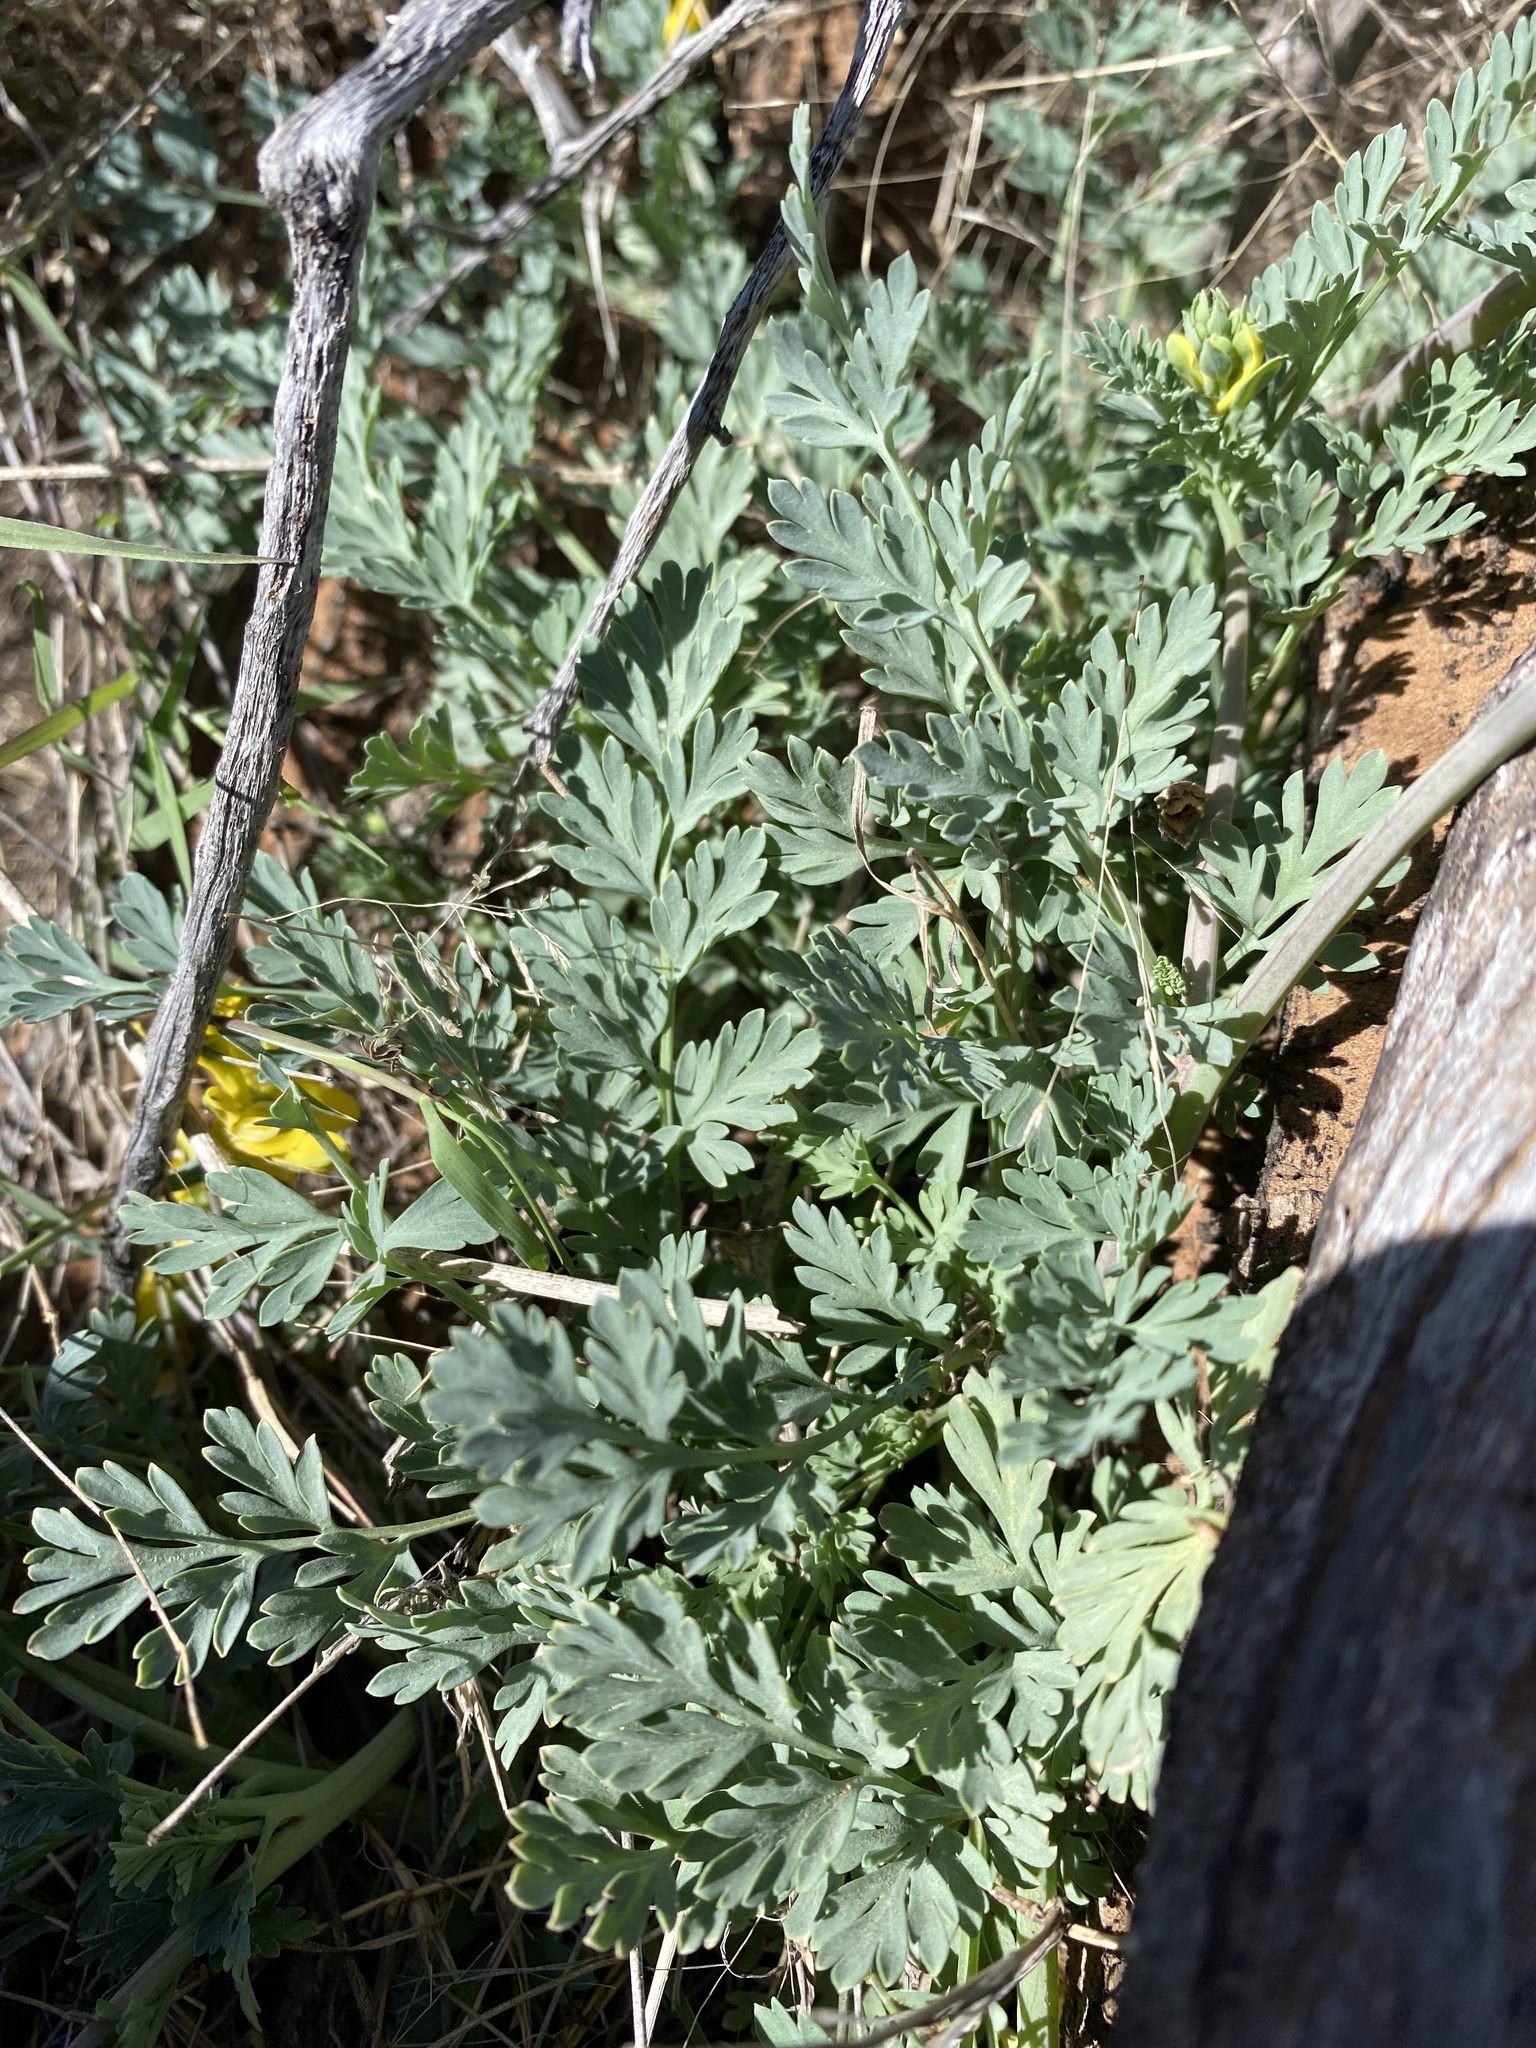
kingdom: Plantae
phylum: Tracheophyta
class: Magnoliopsida
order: Ranunculales
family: Papaveraceae
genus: Corydalis
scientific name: Corydalis aurea
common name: Golden corydalis
